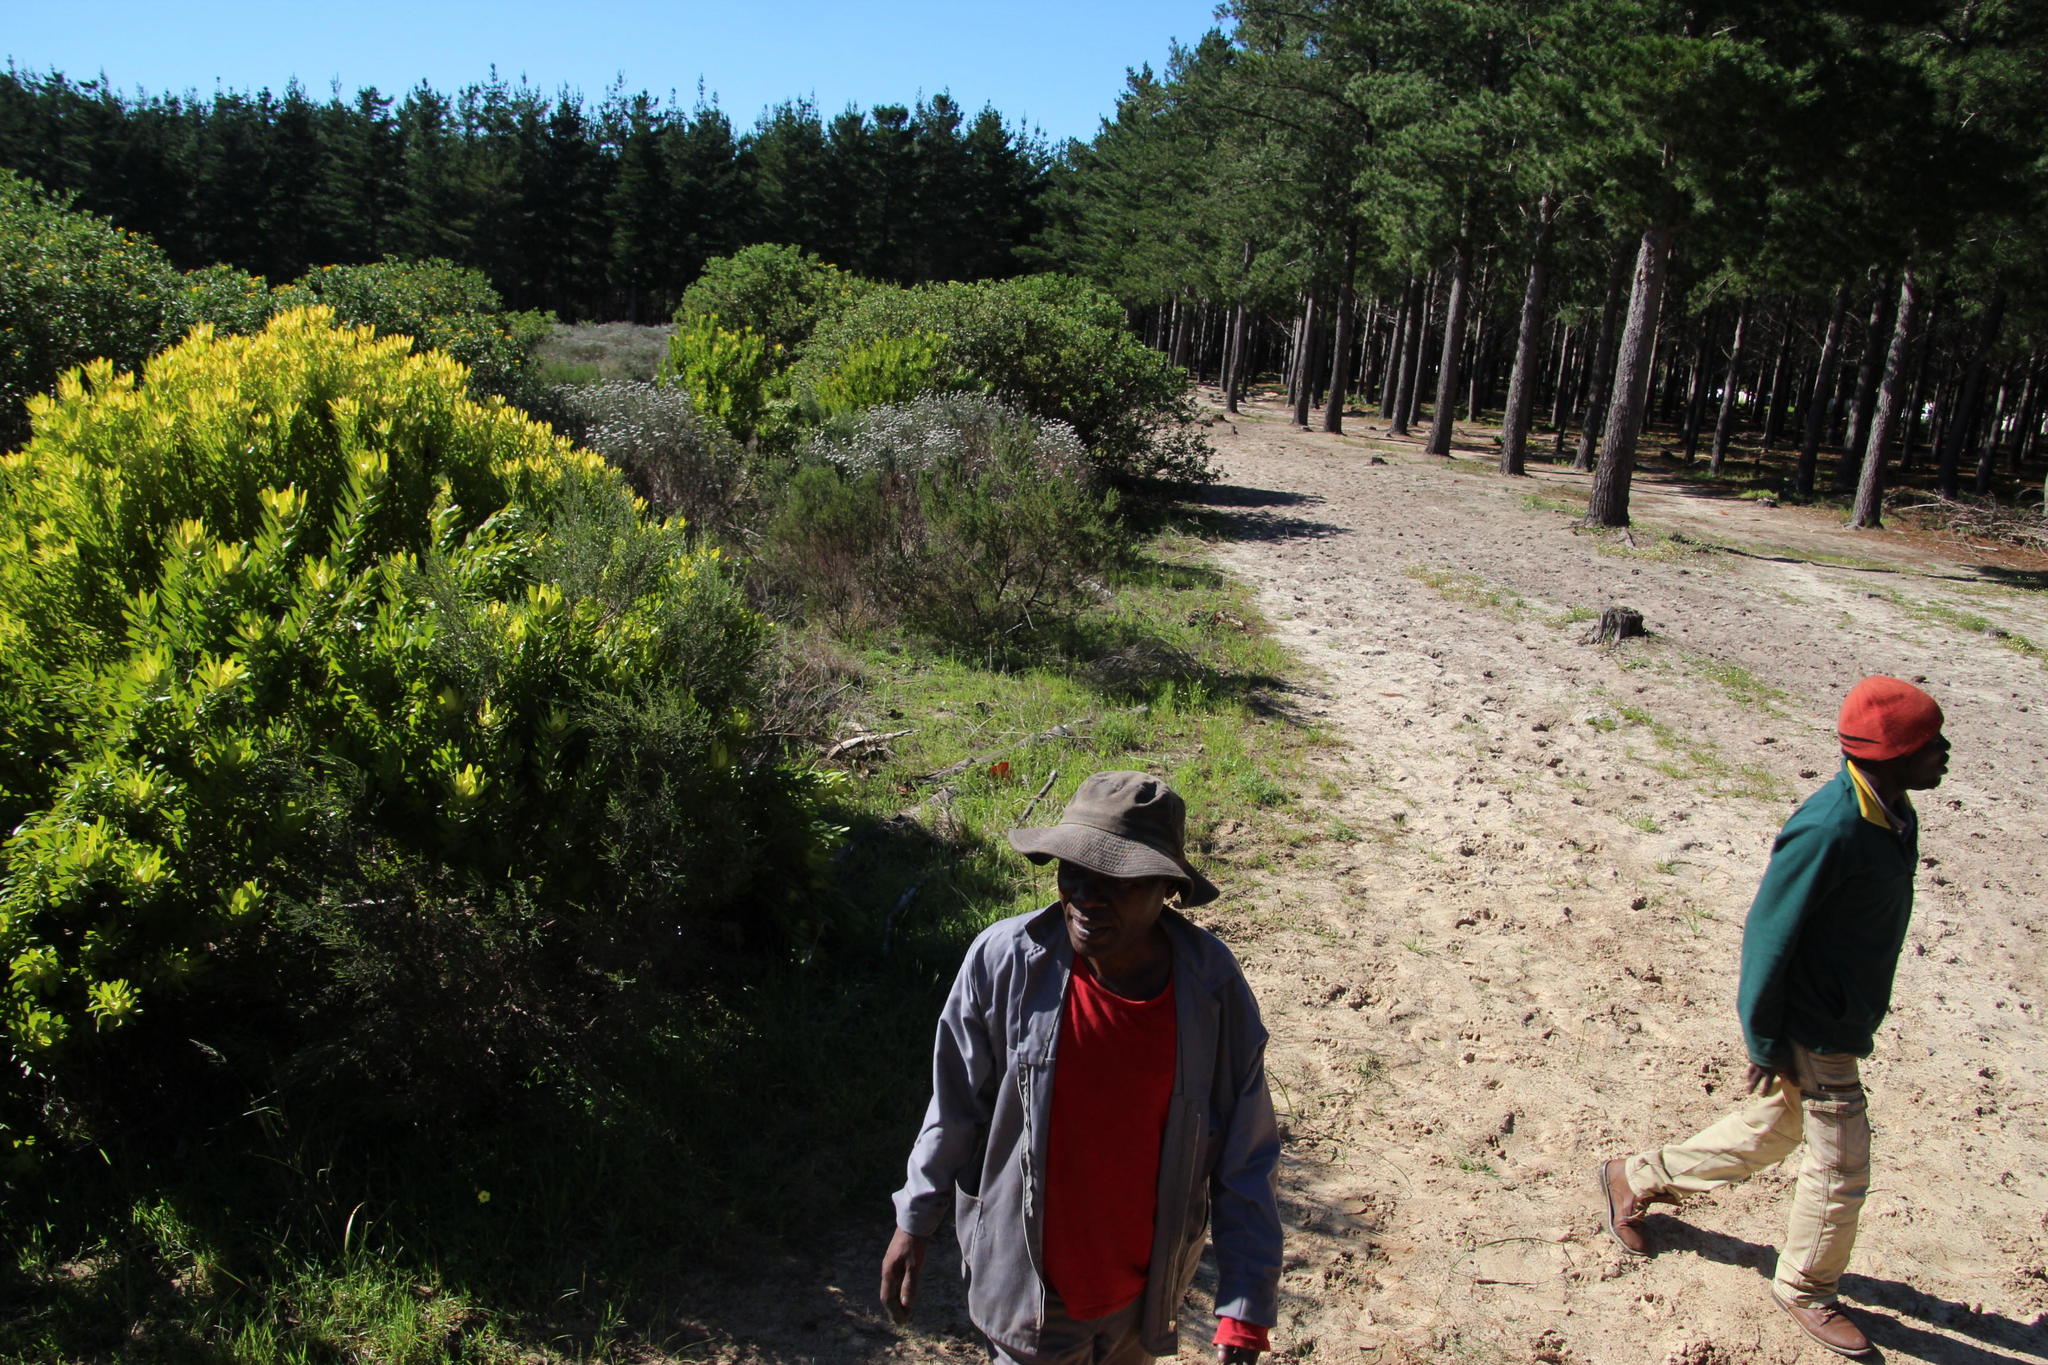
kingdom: Plantae
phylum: Tracheophyta
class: Magnoliopsida
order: Proteales
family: Proteaceae
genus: Leucadendron
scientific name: Leucadendron laureolum
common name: Golden sunshinebush
